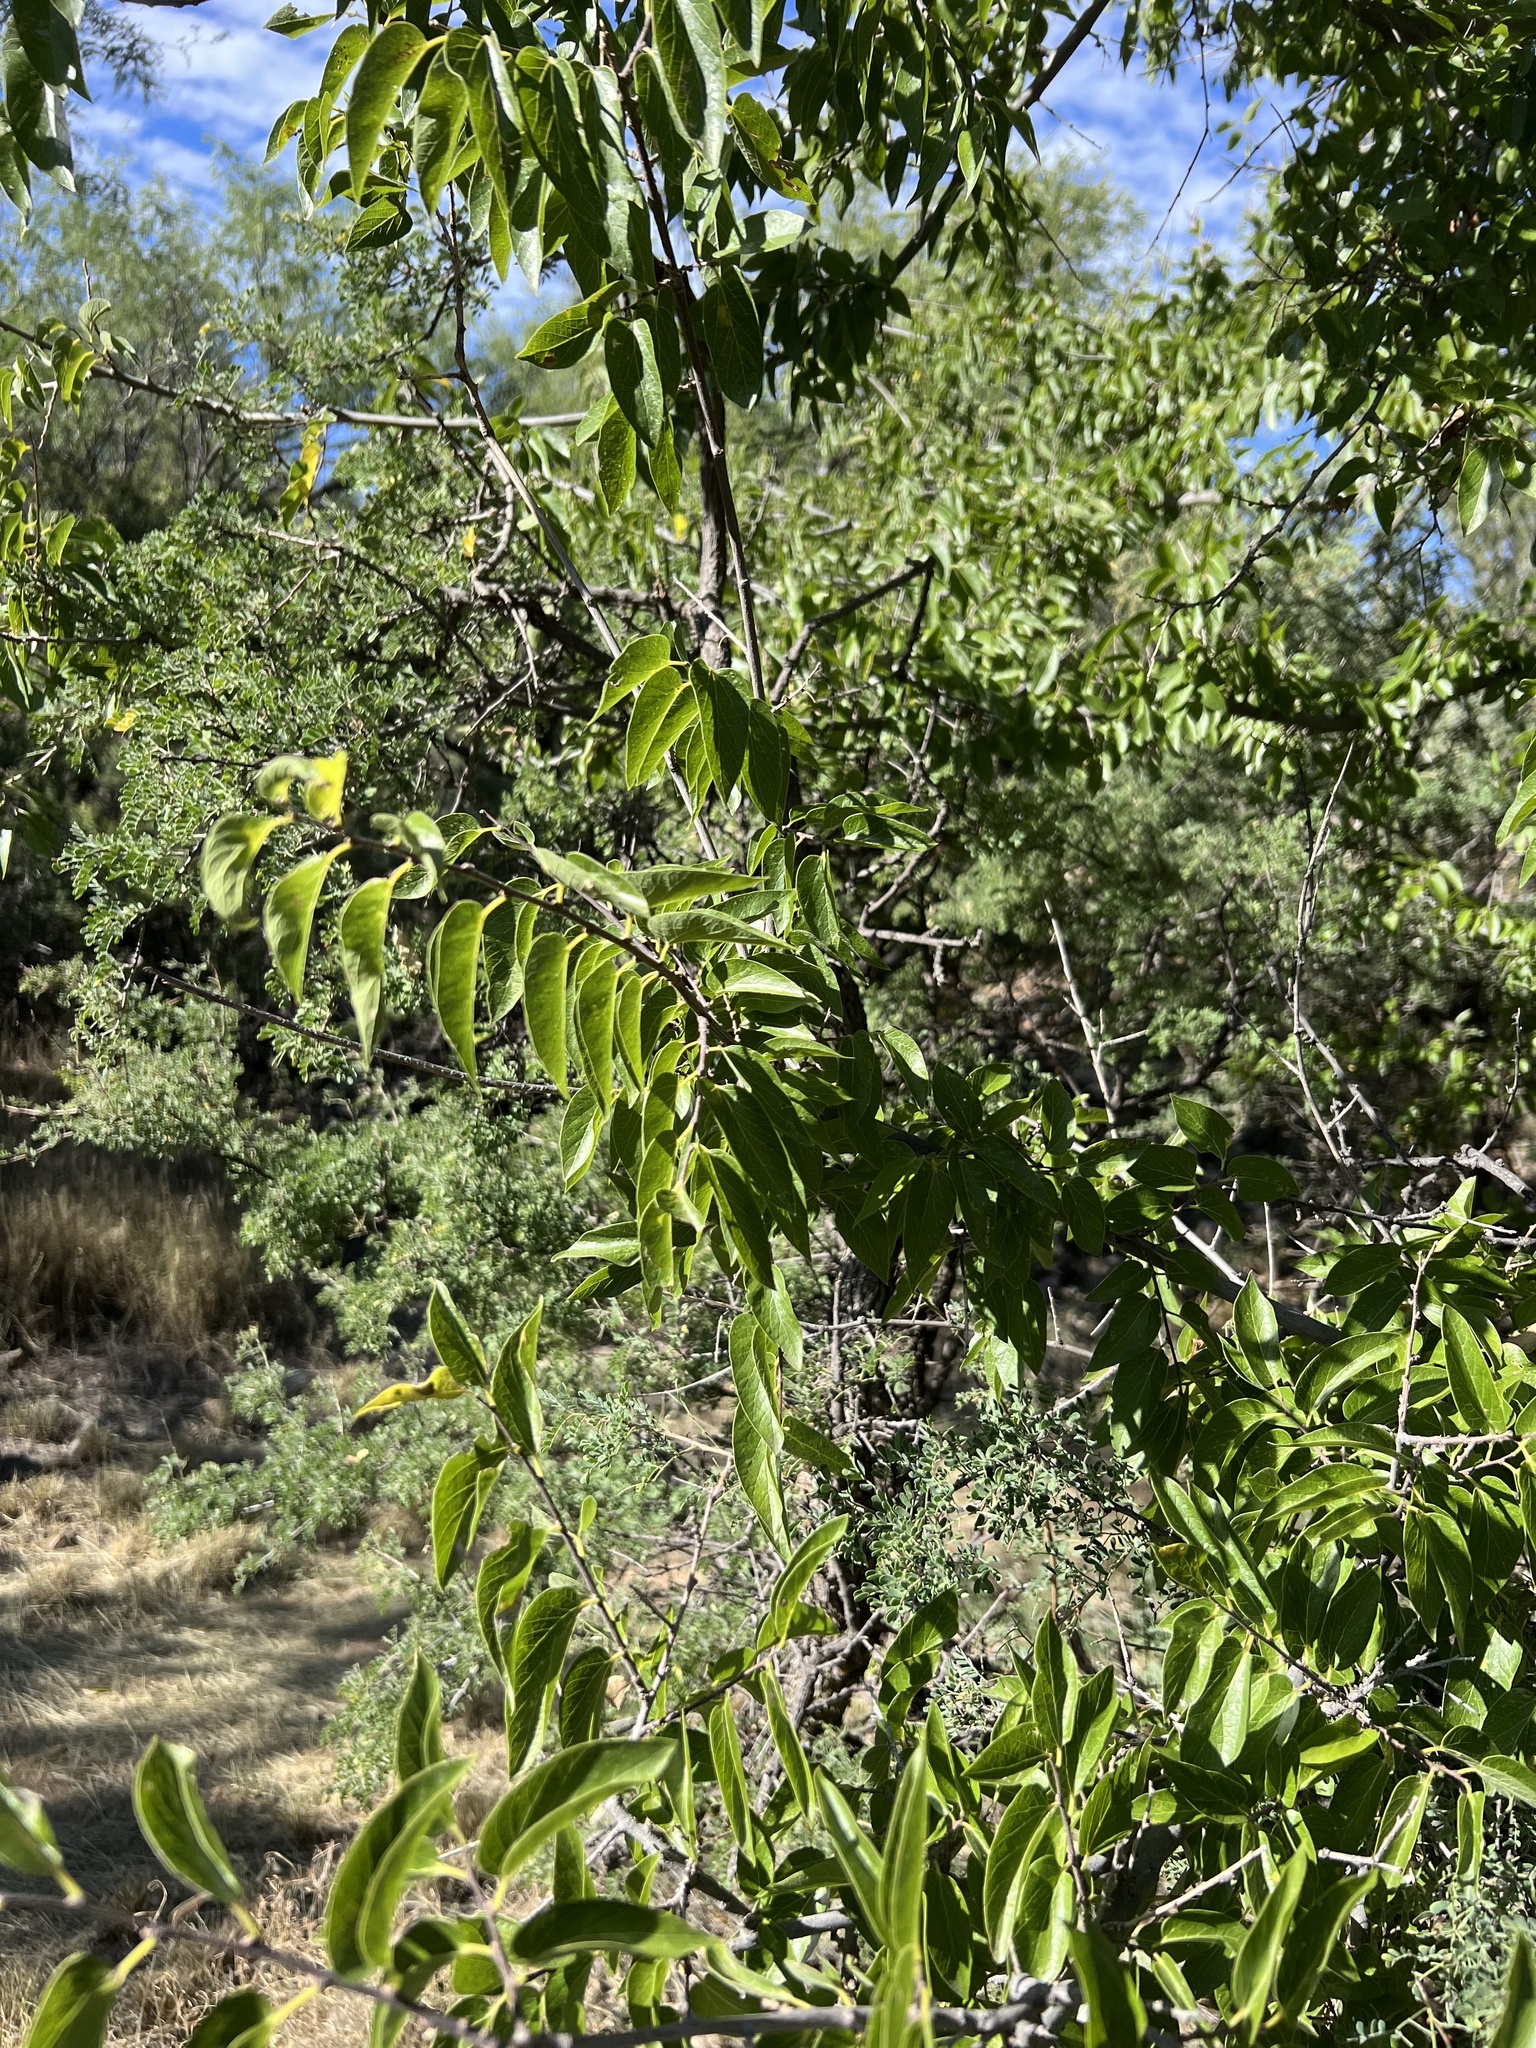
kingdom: Plantae
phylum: Tracheophyta
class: Magnoliopsida
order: Rosales
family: Cannabaceae
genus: Celtis
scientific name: Celtis reticulata
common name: Netleaf hackberry
